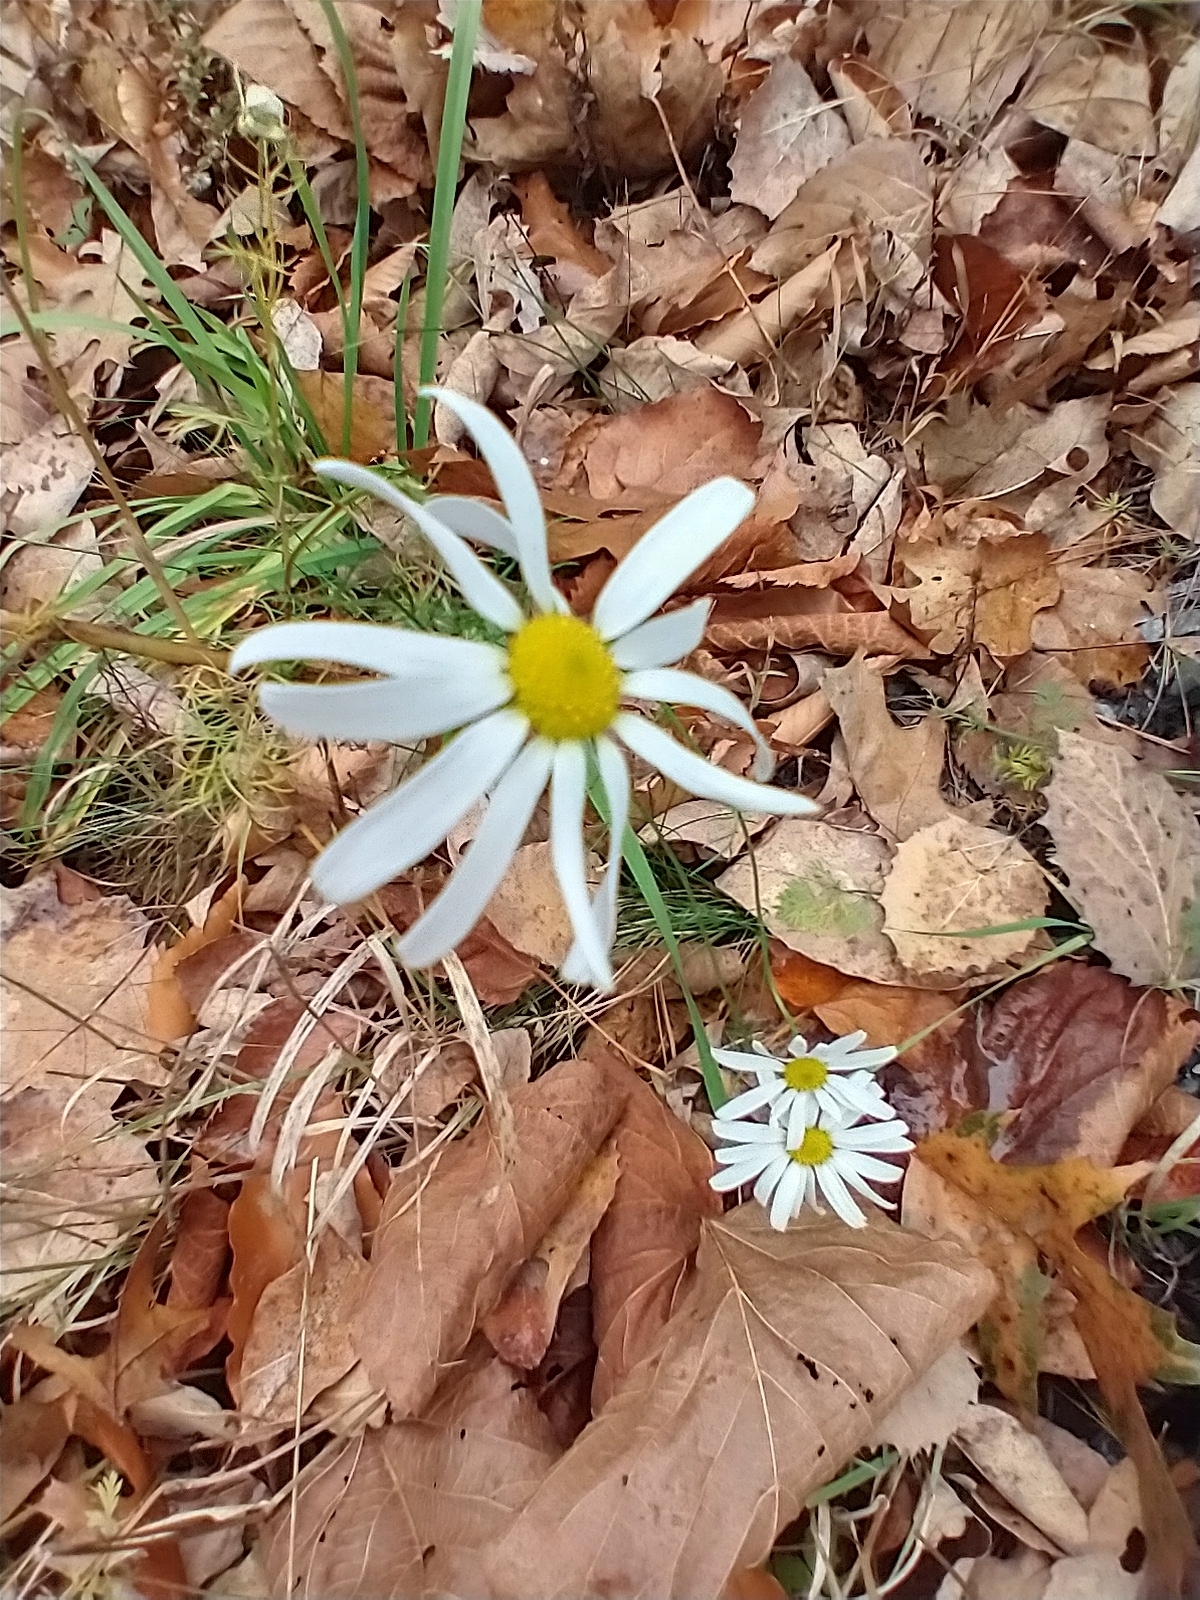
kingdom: Plantae
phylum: Tracheophyta
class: Magnoliopsida
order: Asterales
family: Asteraceae
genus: Tripleurospermum
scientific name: Tripleurospermum inodorum
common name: Scentless mayweed
